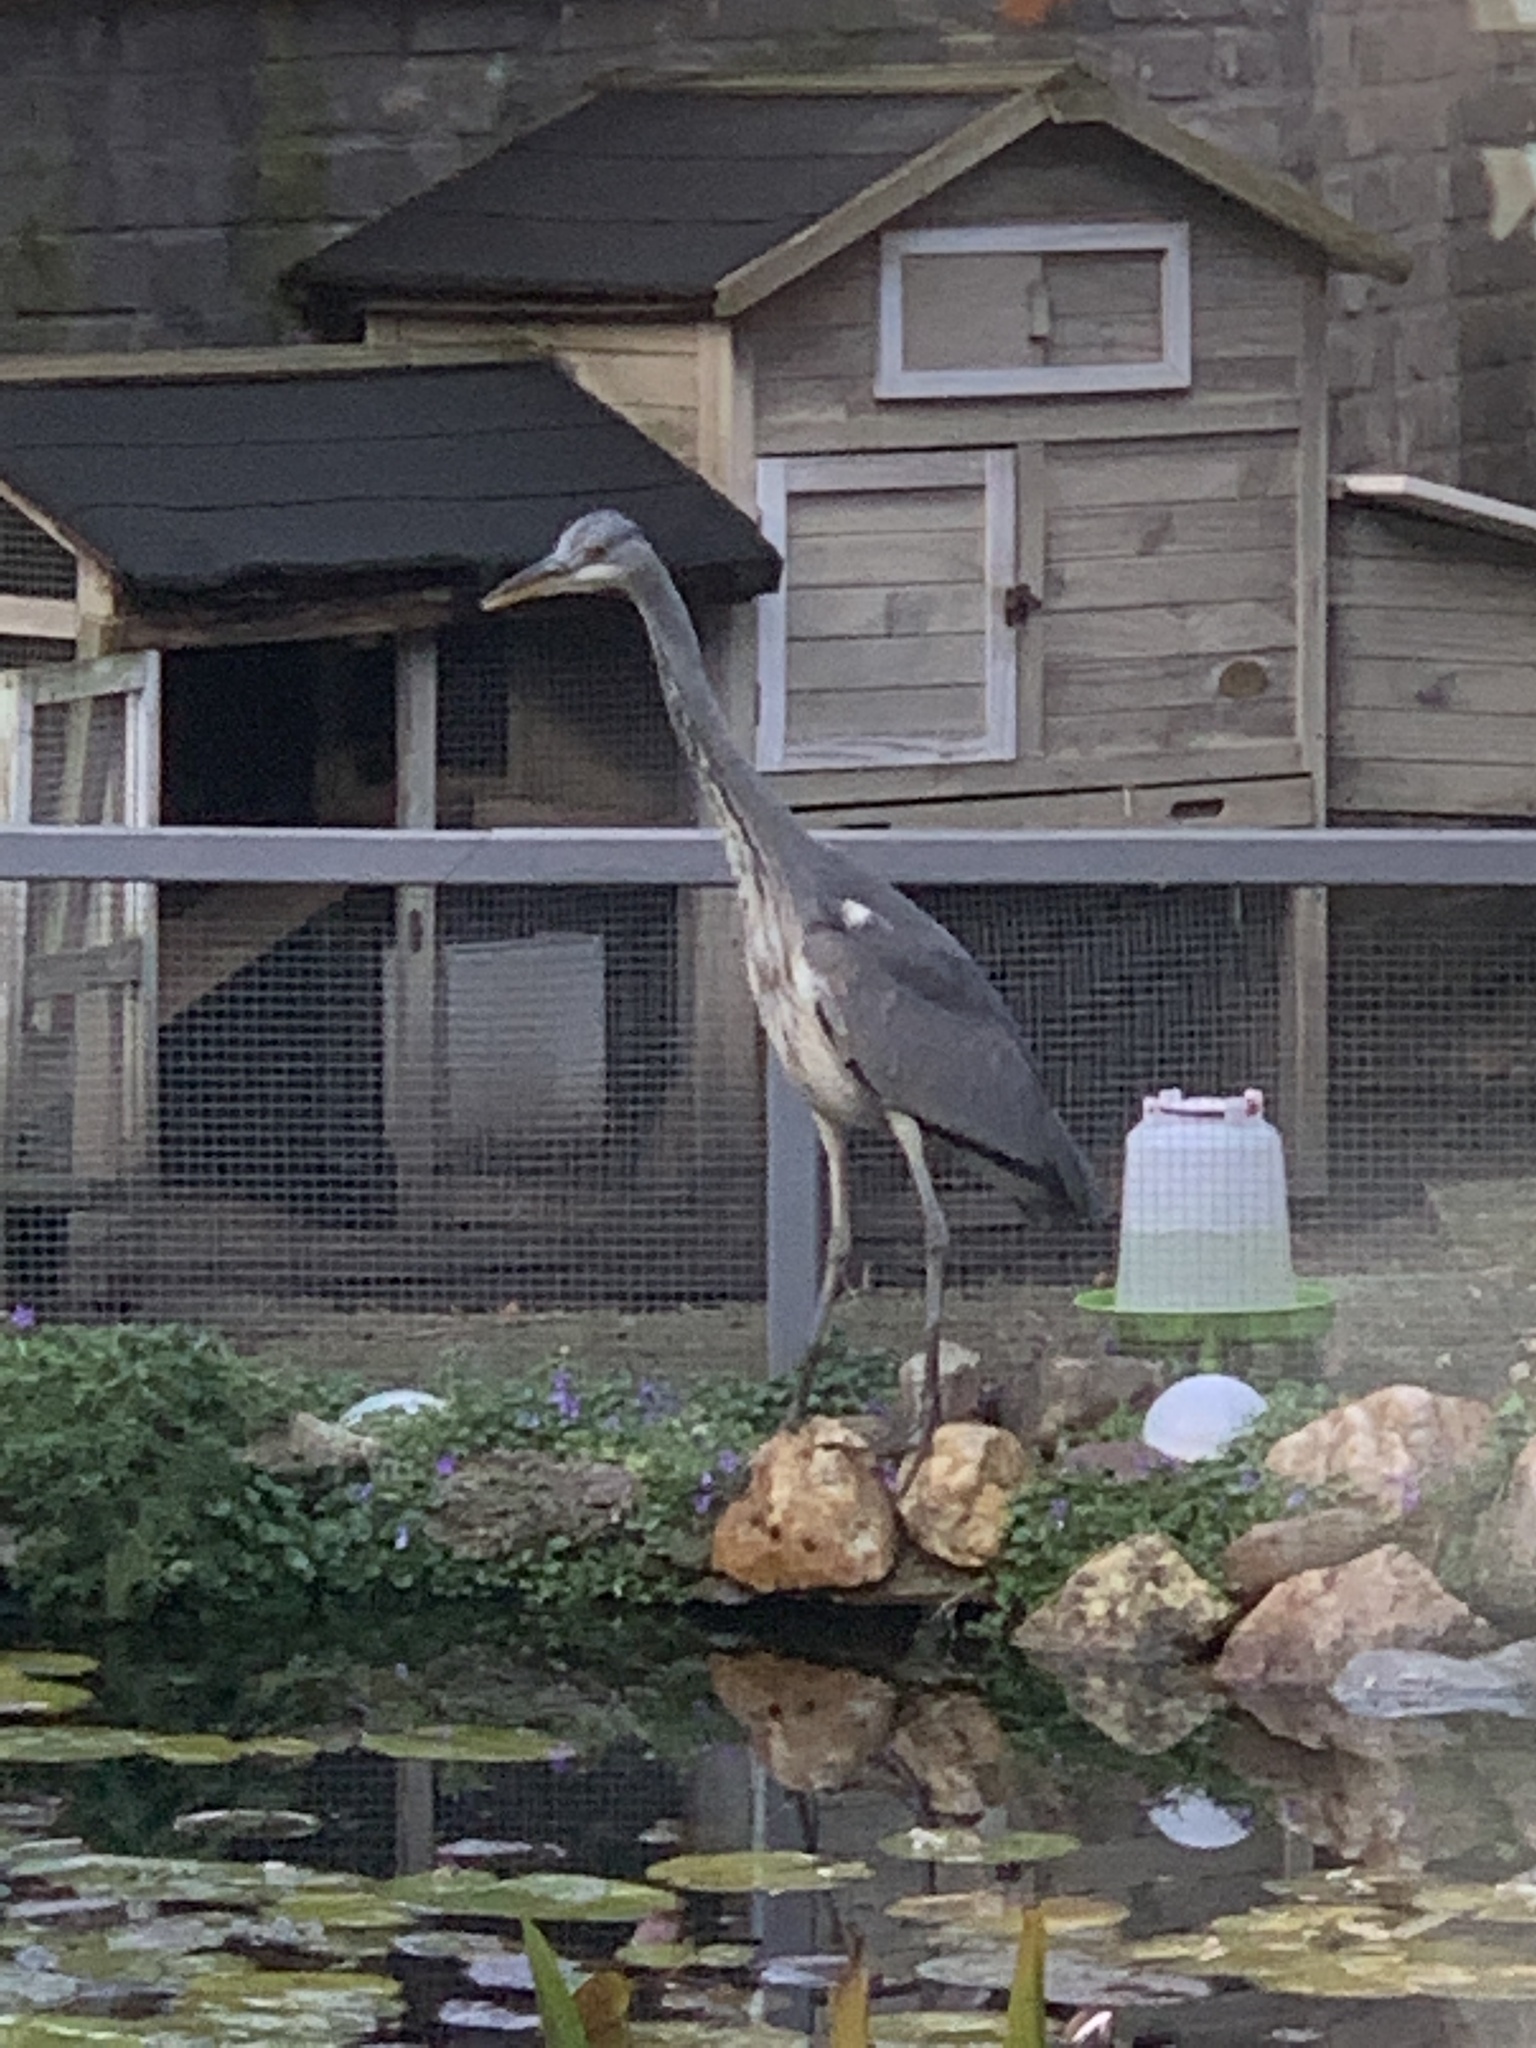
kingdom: Animalia
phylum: Chordata
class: Aves
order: Pelecaniformes
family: Ardeidae
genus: Ardea
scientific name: Ardea cinerea
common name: Grey heron
